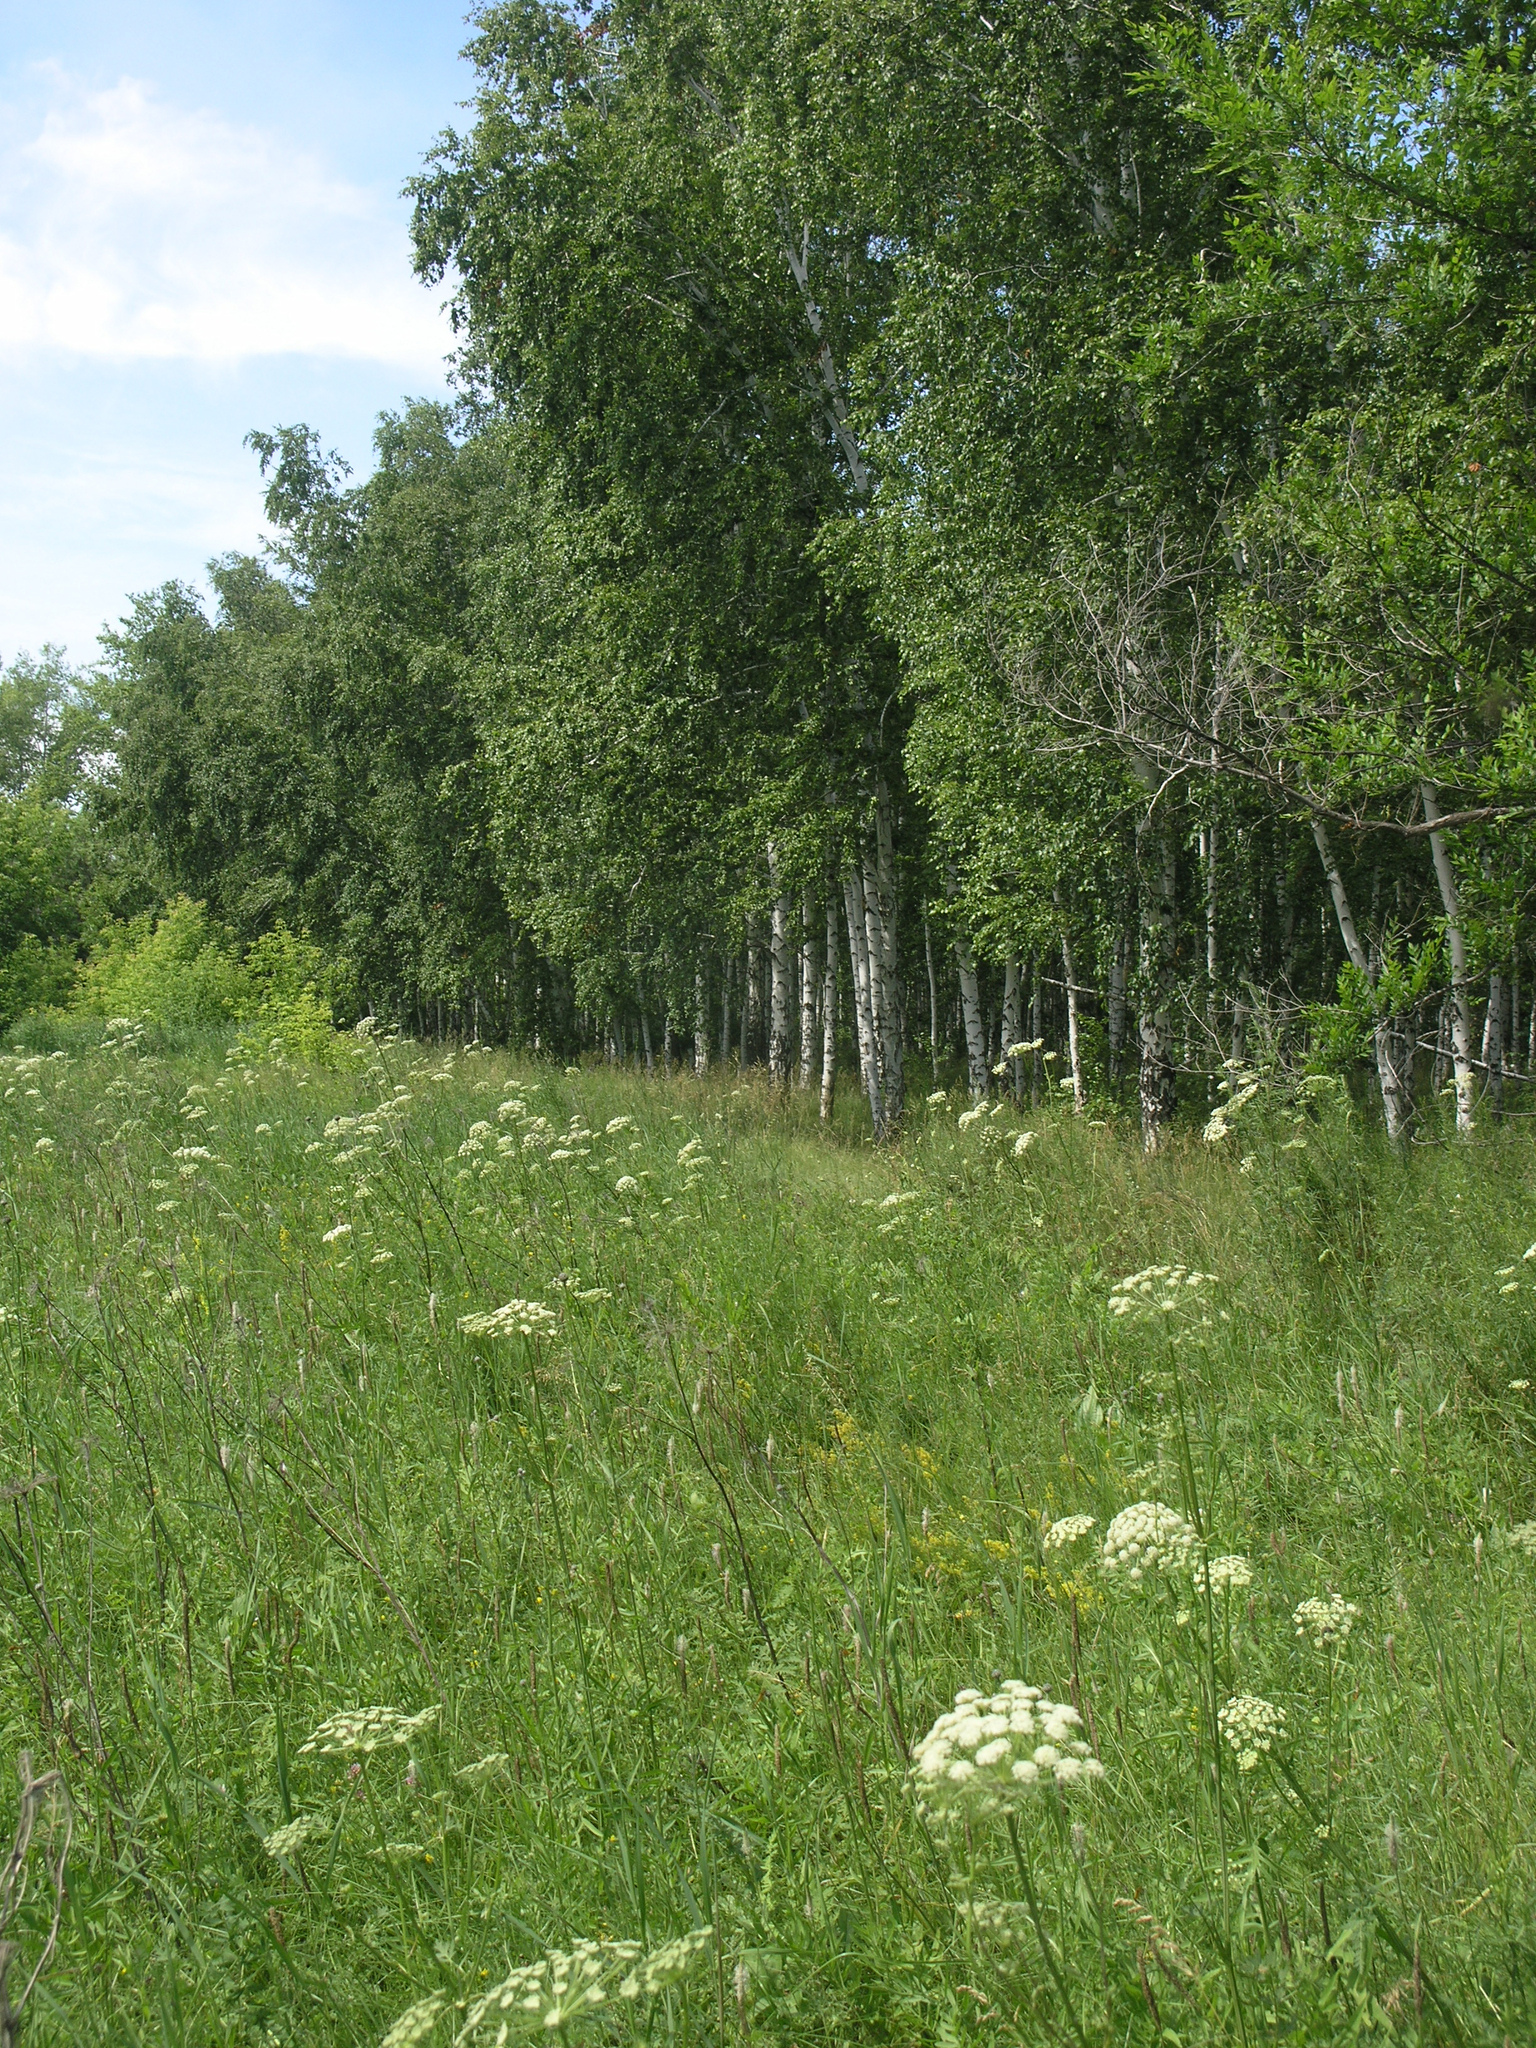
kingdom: Plantae
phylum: Tracheophyta
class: Magnoliopsida
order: Fagales
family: Betulaceae
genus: Betula
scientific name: Betula pendula
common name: Silver birch
